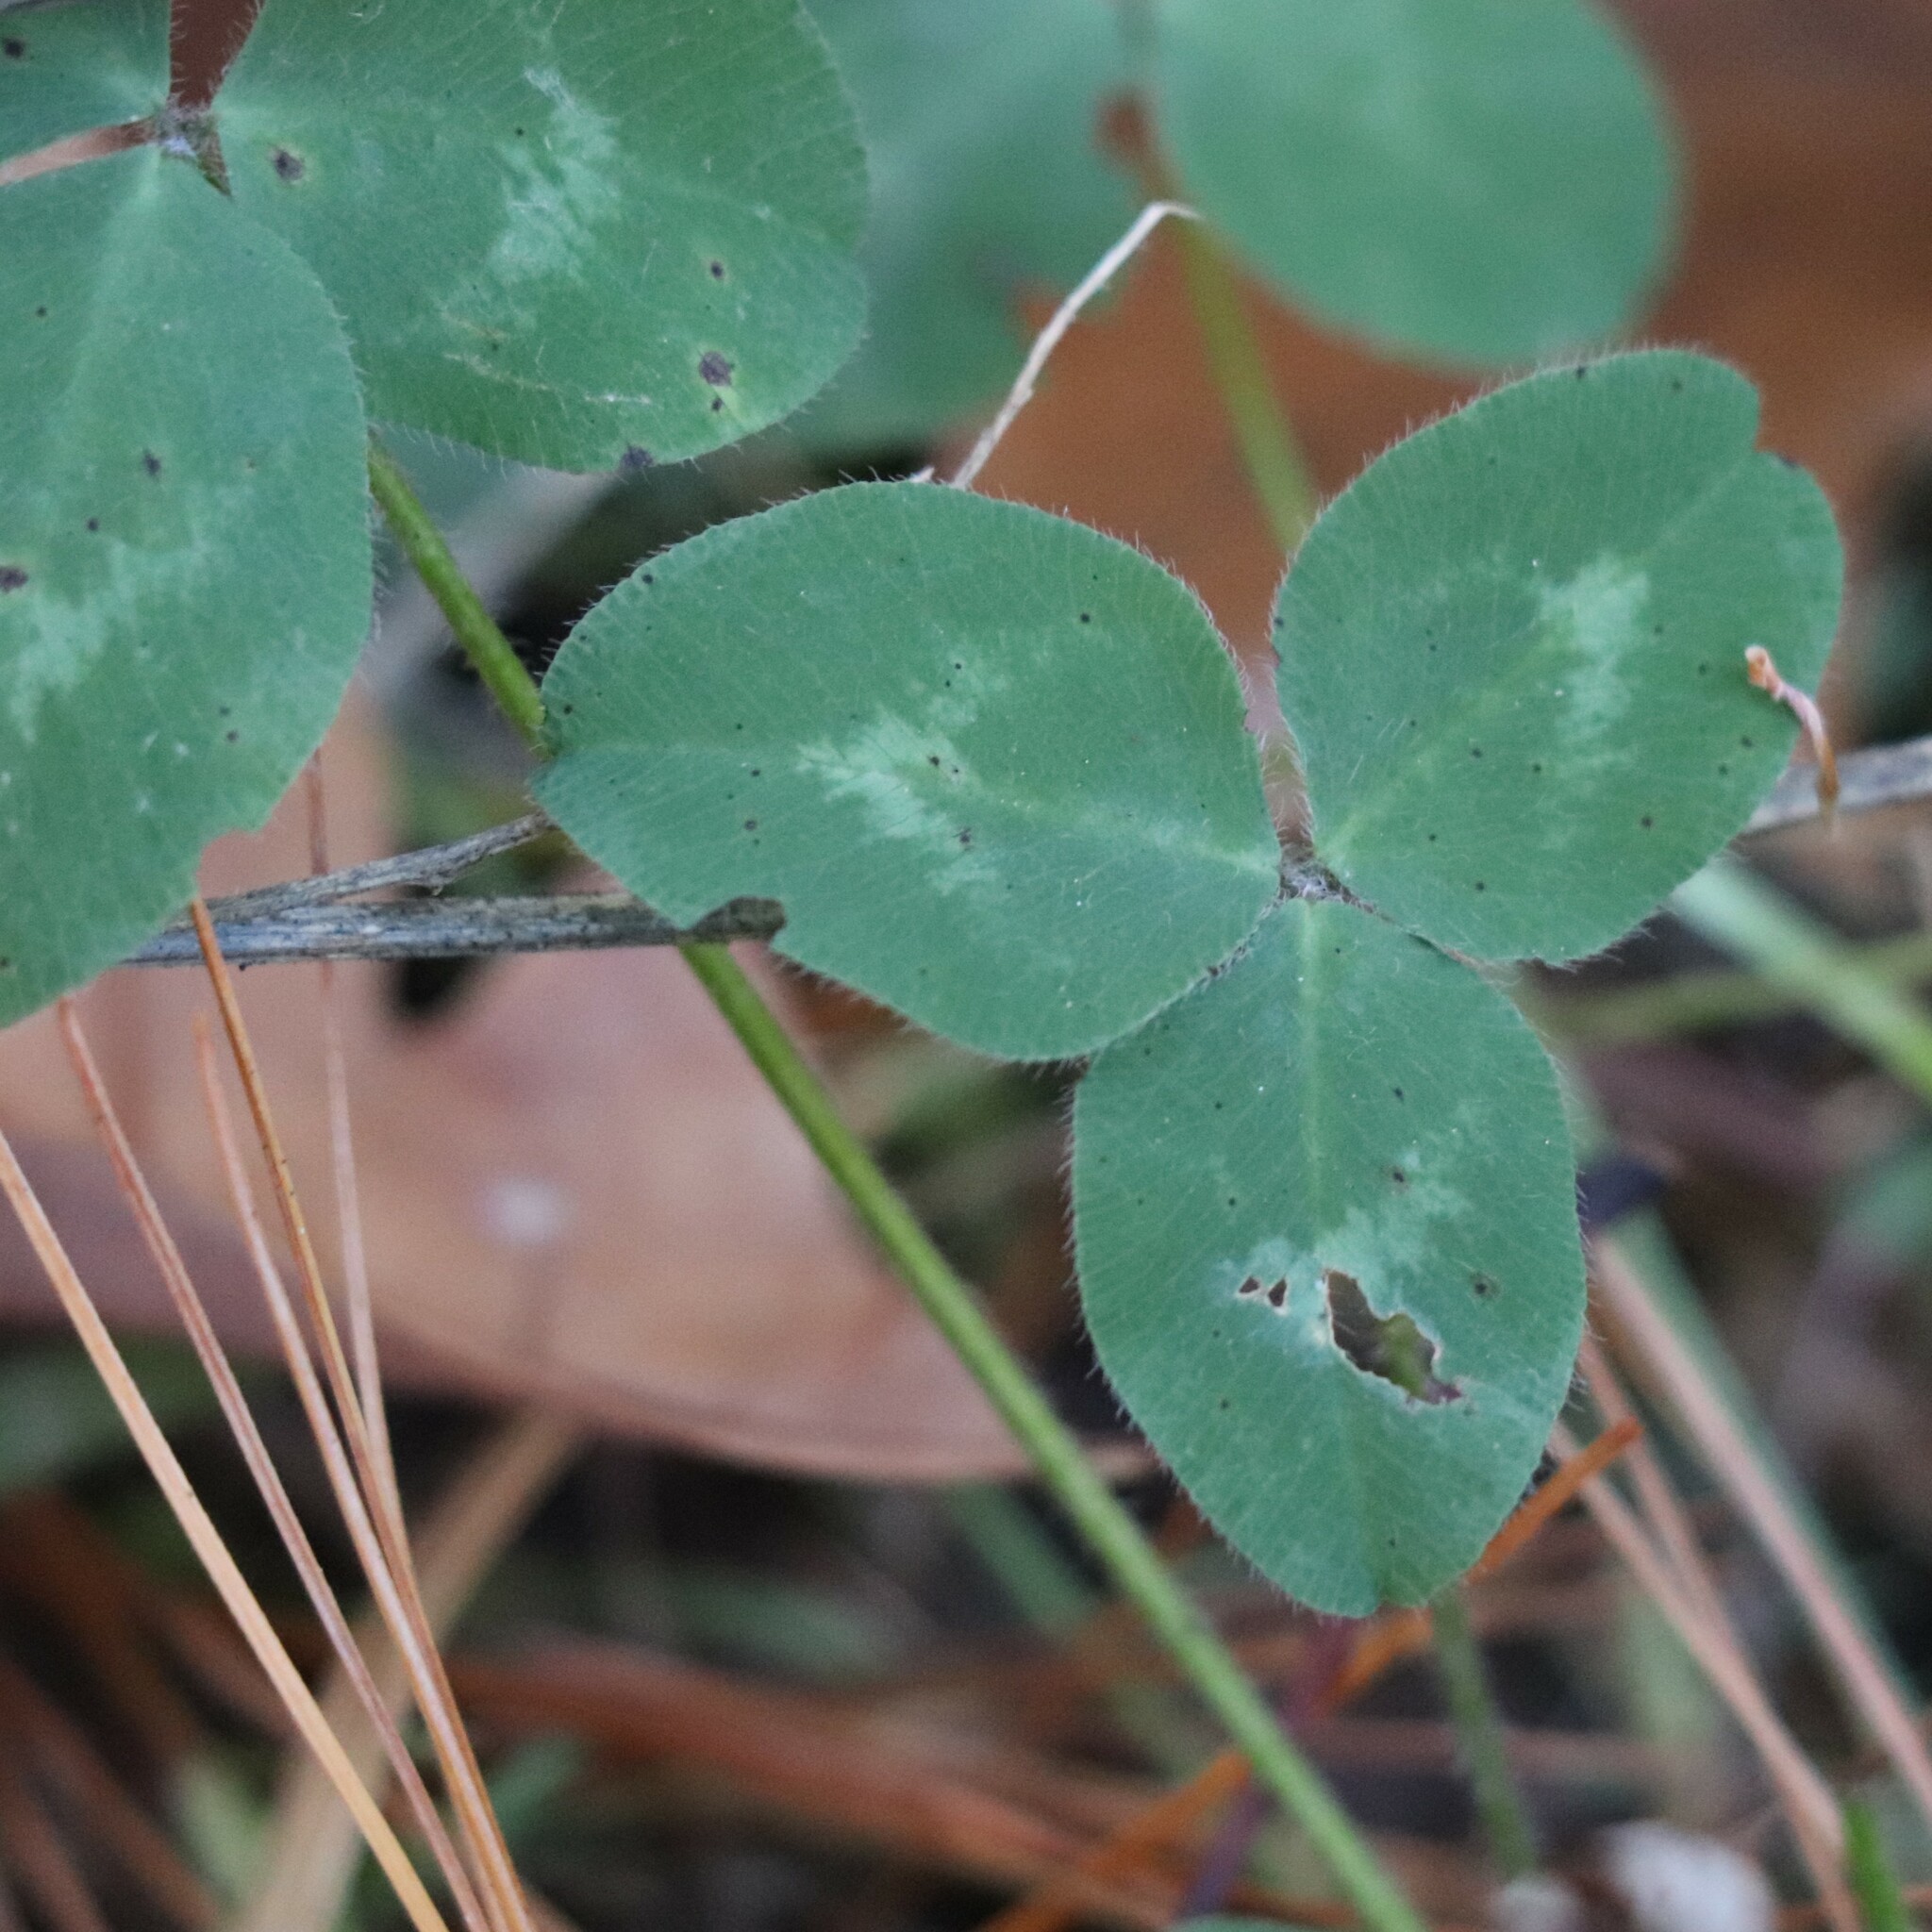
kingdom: Plantae
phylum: Tracheophyta
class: Magnoliopsida
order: Fabales
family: Fabaceae
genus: Trifolium
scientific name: Trifolium pratense
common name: Red clover
